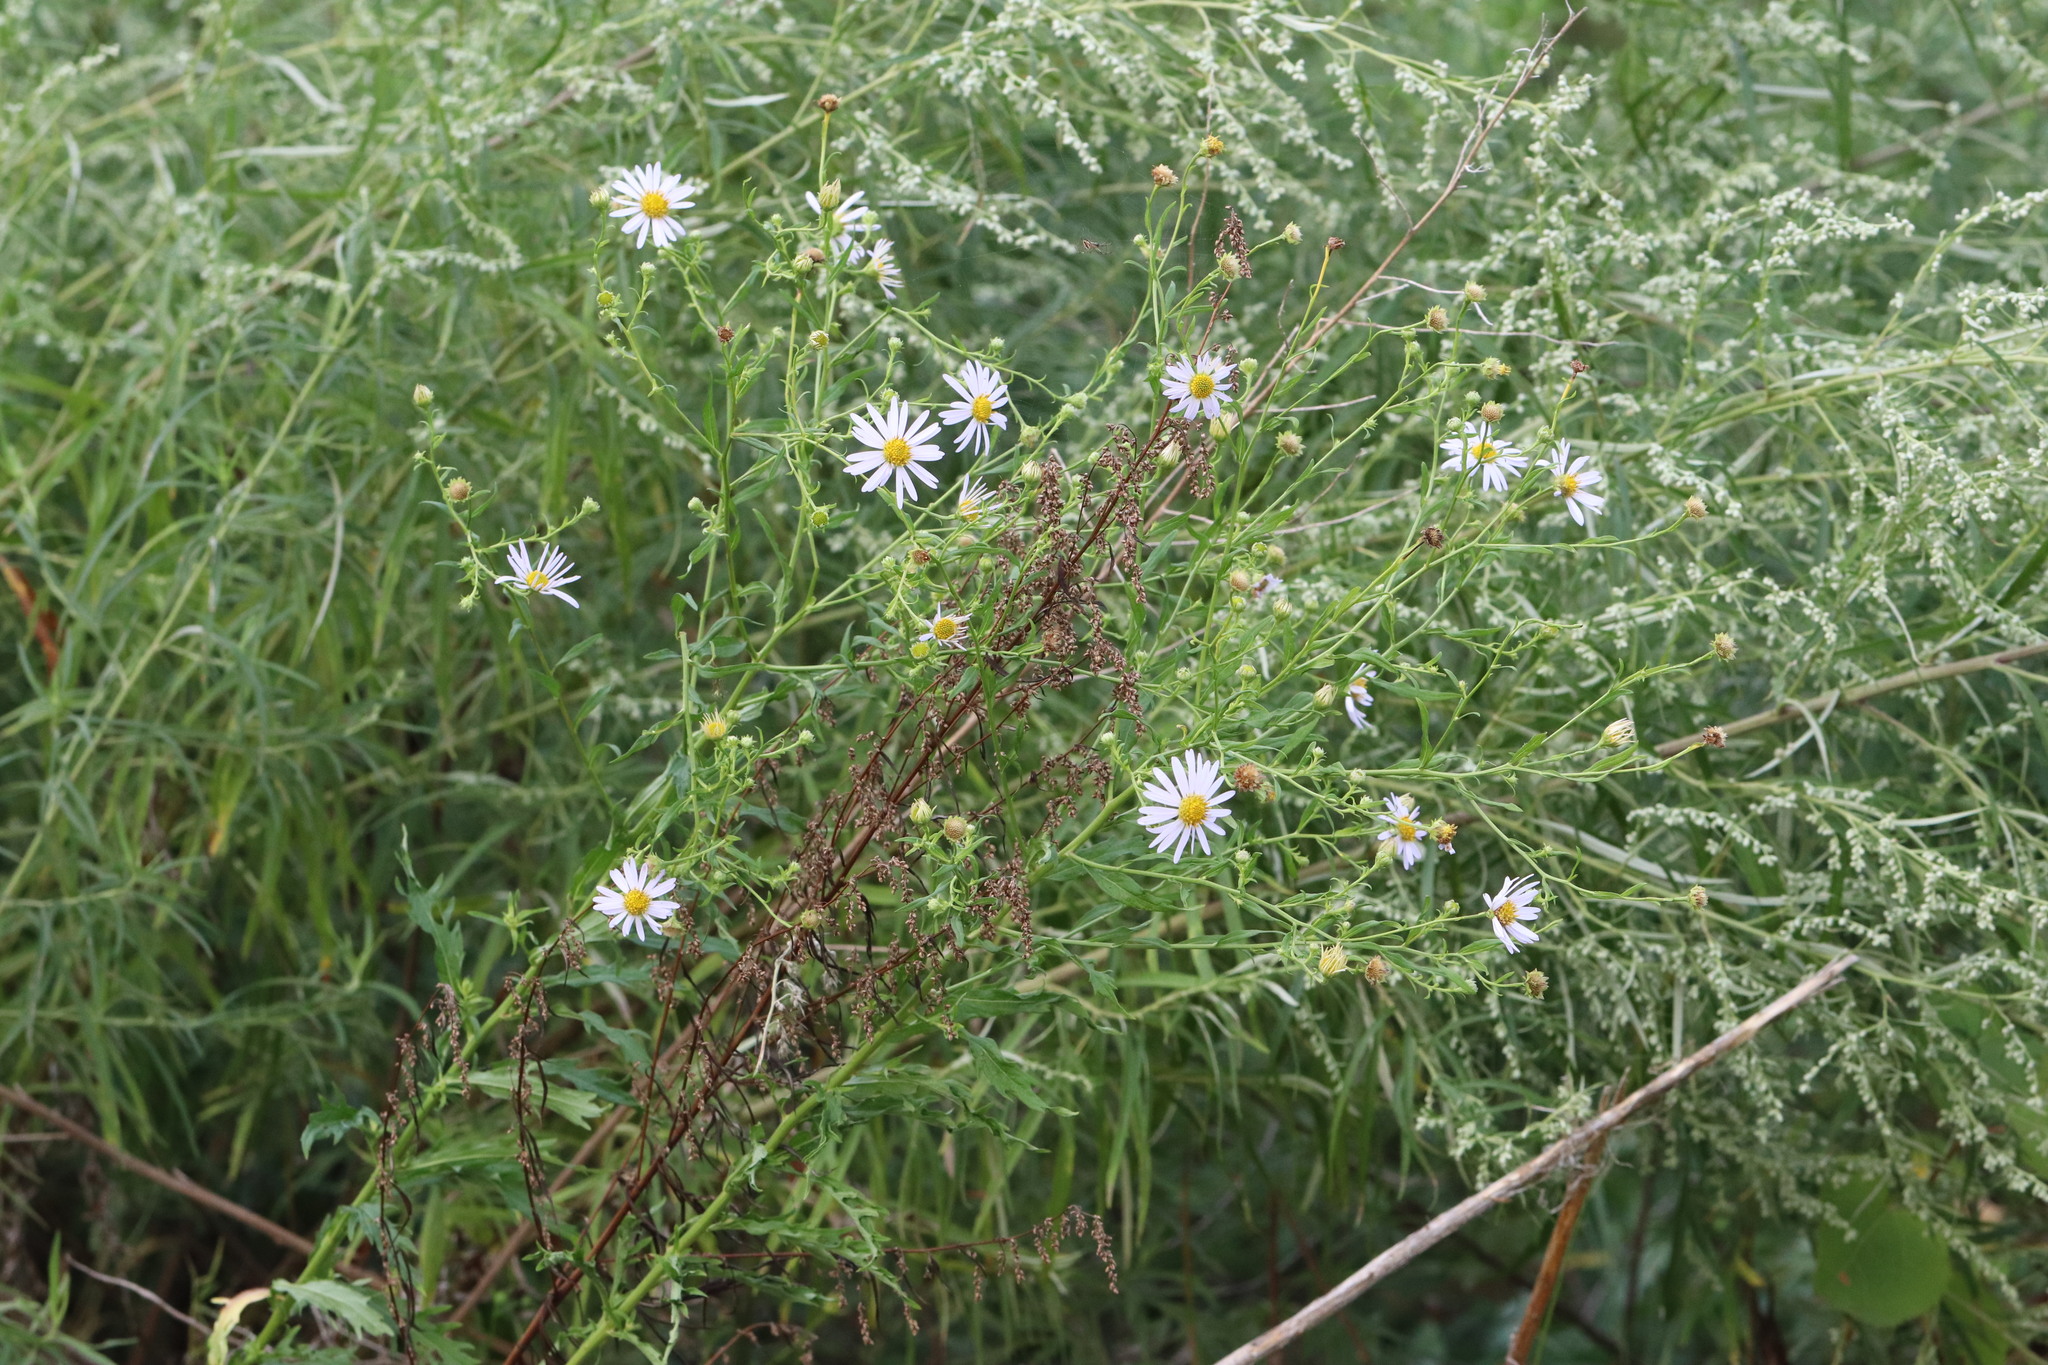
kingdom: Plantae
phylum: Tracheophyta
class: Magnoliopsida
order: Asterales
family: Asteraceae
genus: Kalimeris
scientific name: Kalimeris incisa
